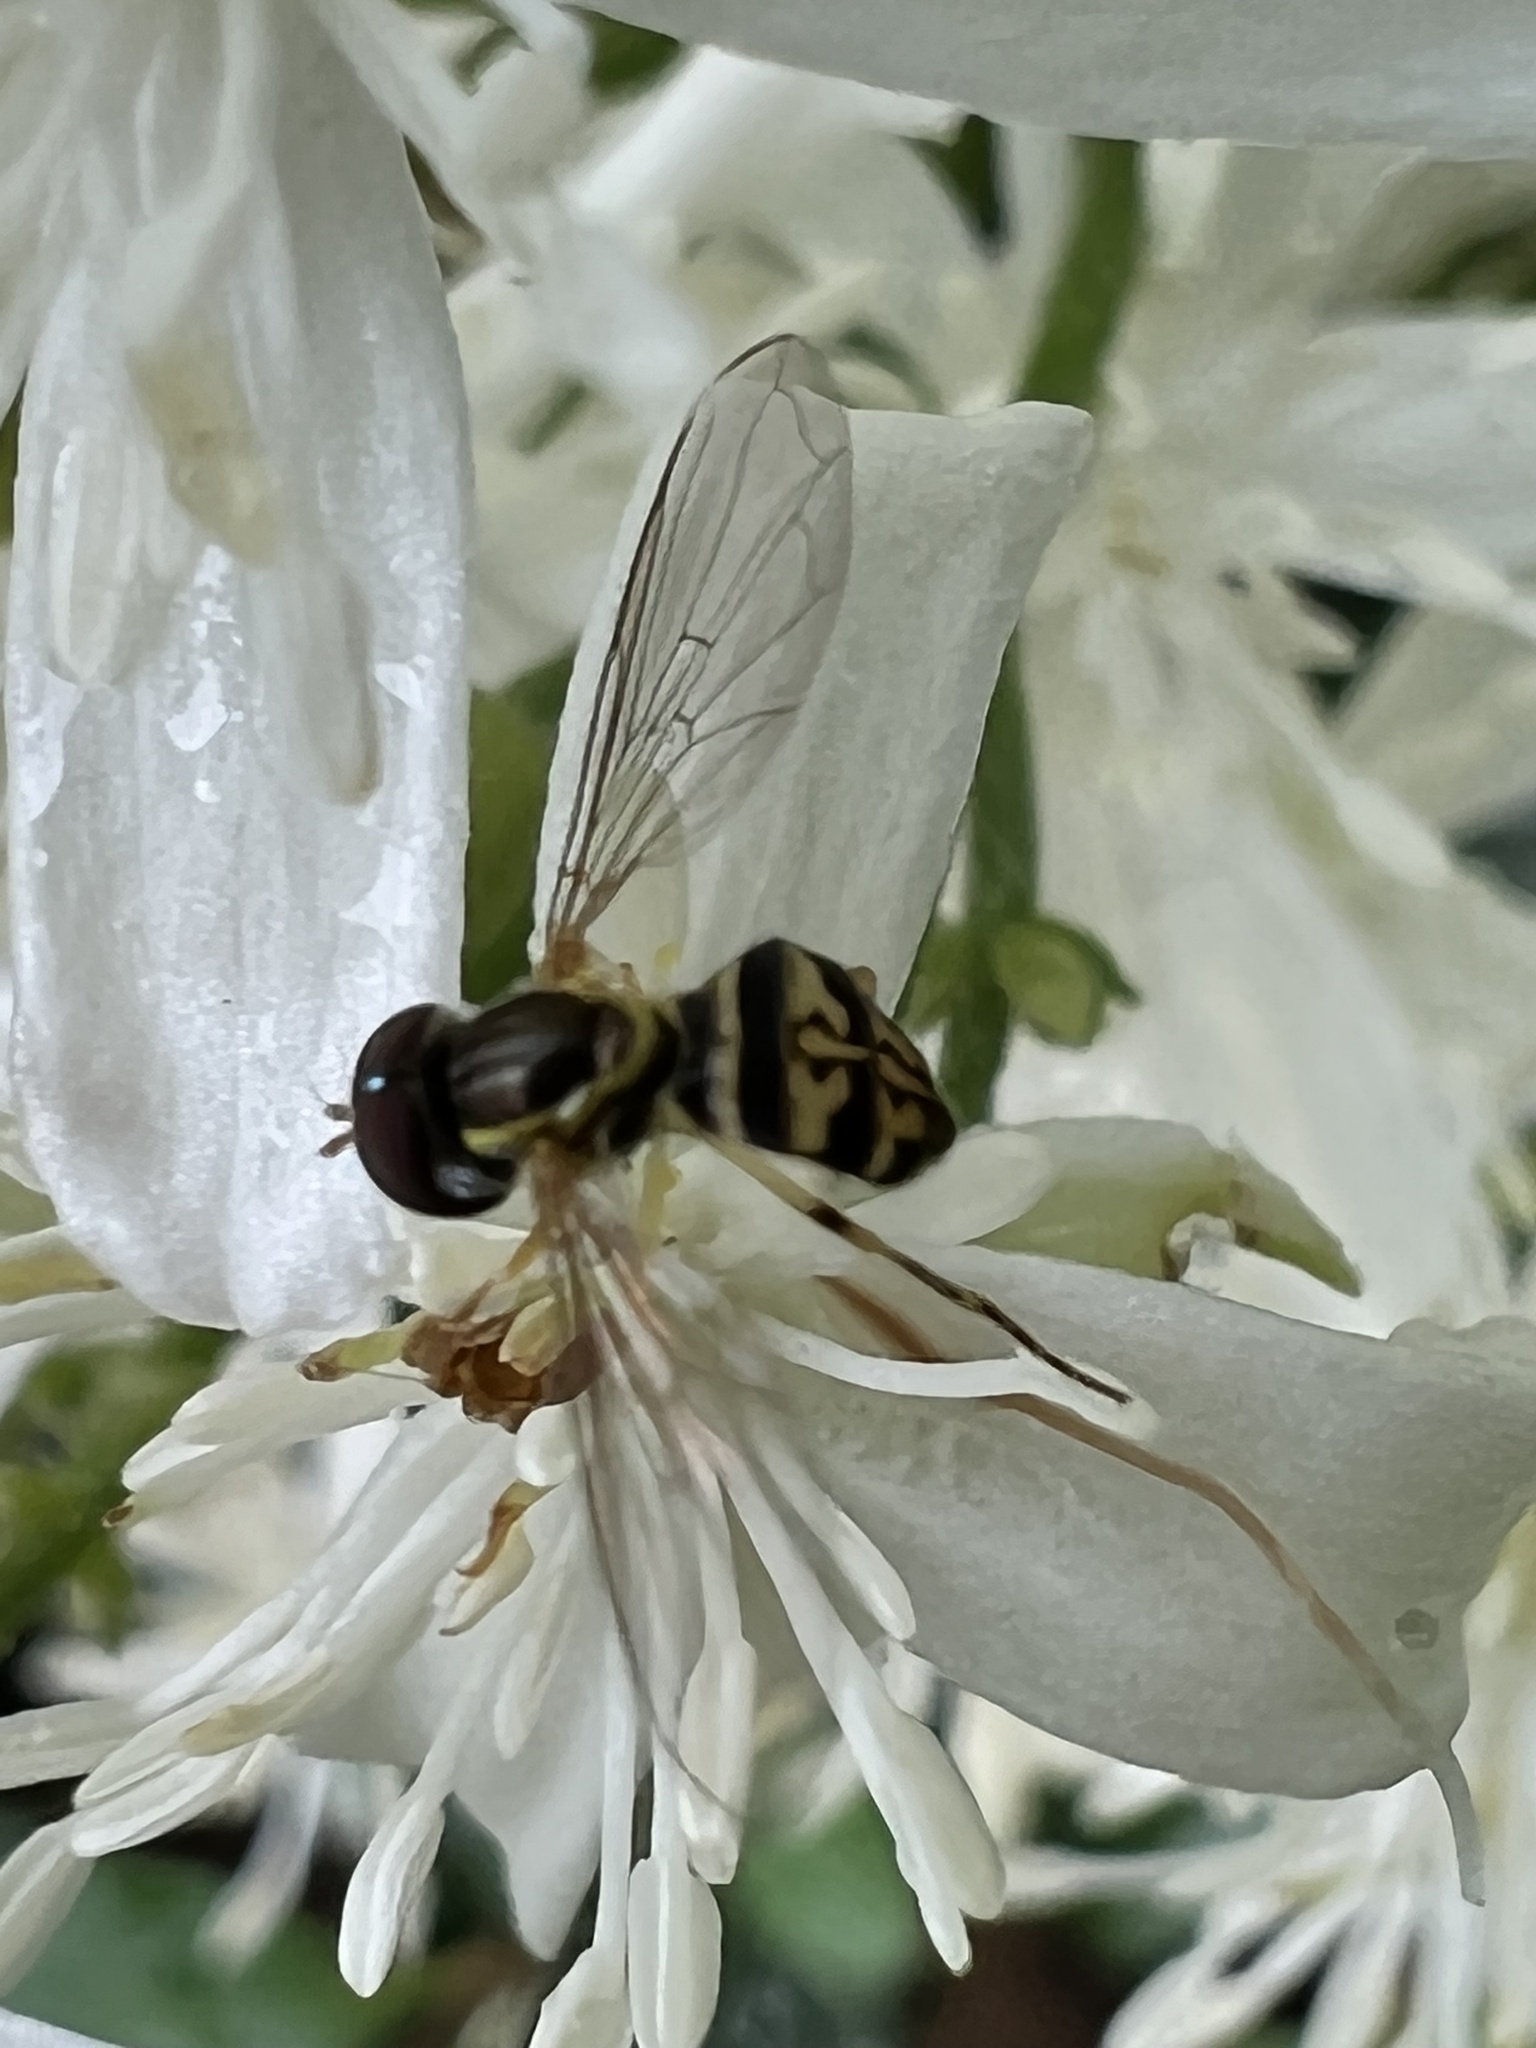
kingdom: Animalia
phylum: Arthropoda
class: Insecta
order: Diptera
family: Syrphidae
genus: Toxomerus
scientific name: Toxomerus geminatus
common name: Eastern calligrapher
